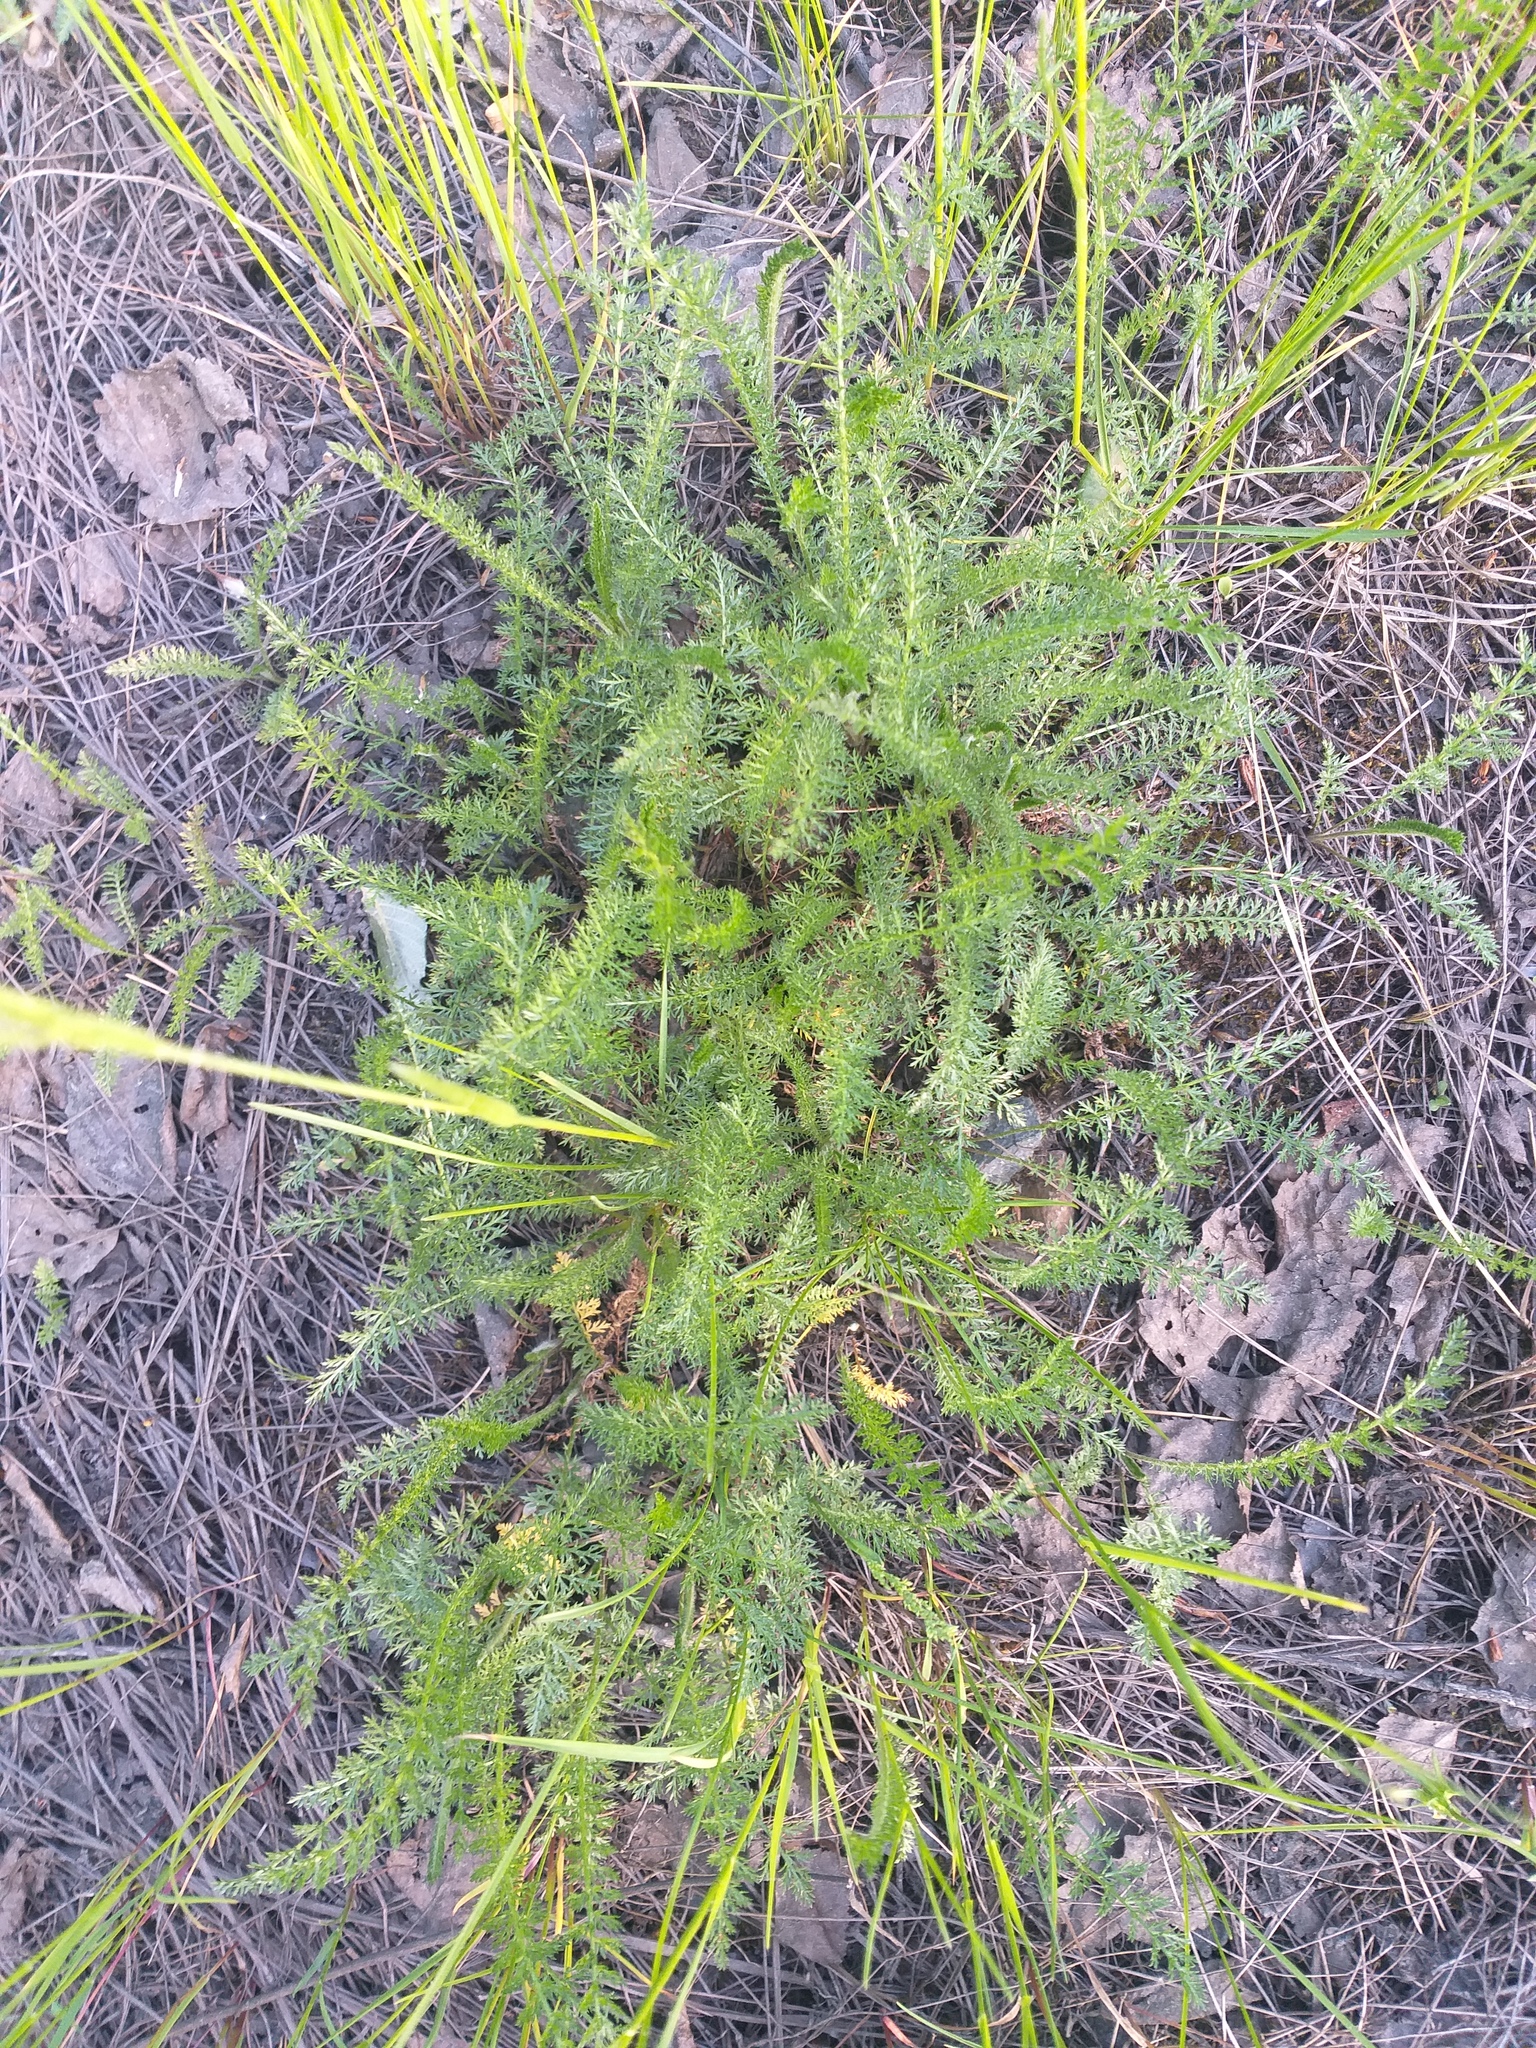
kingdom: Plantae
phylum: Tracheophyta
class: Magnoliopsida
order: Asterales
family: Asteraceae
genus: Achillea
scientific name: Achillea millefolium
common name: Yarrow
